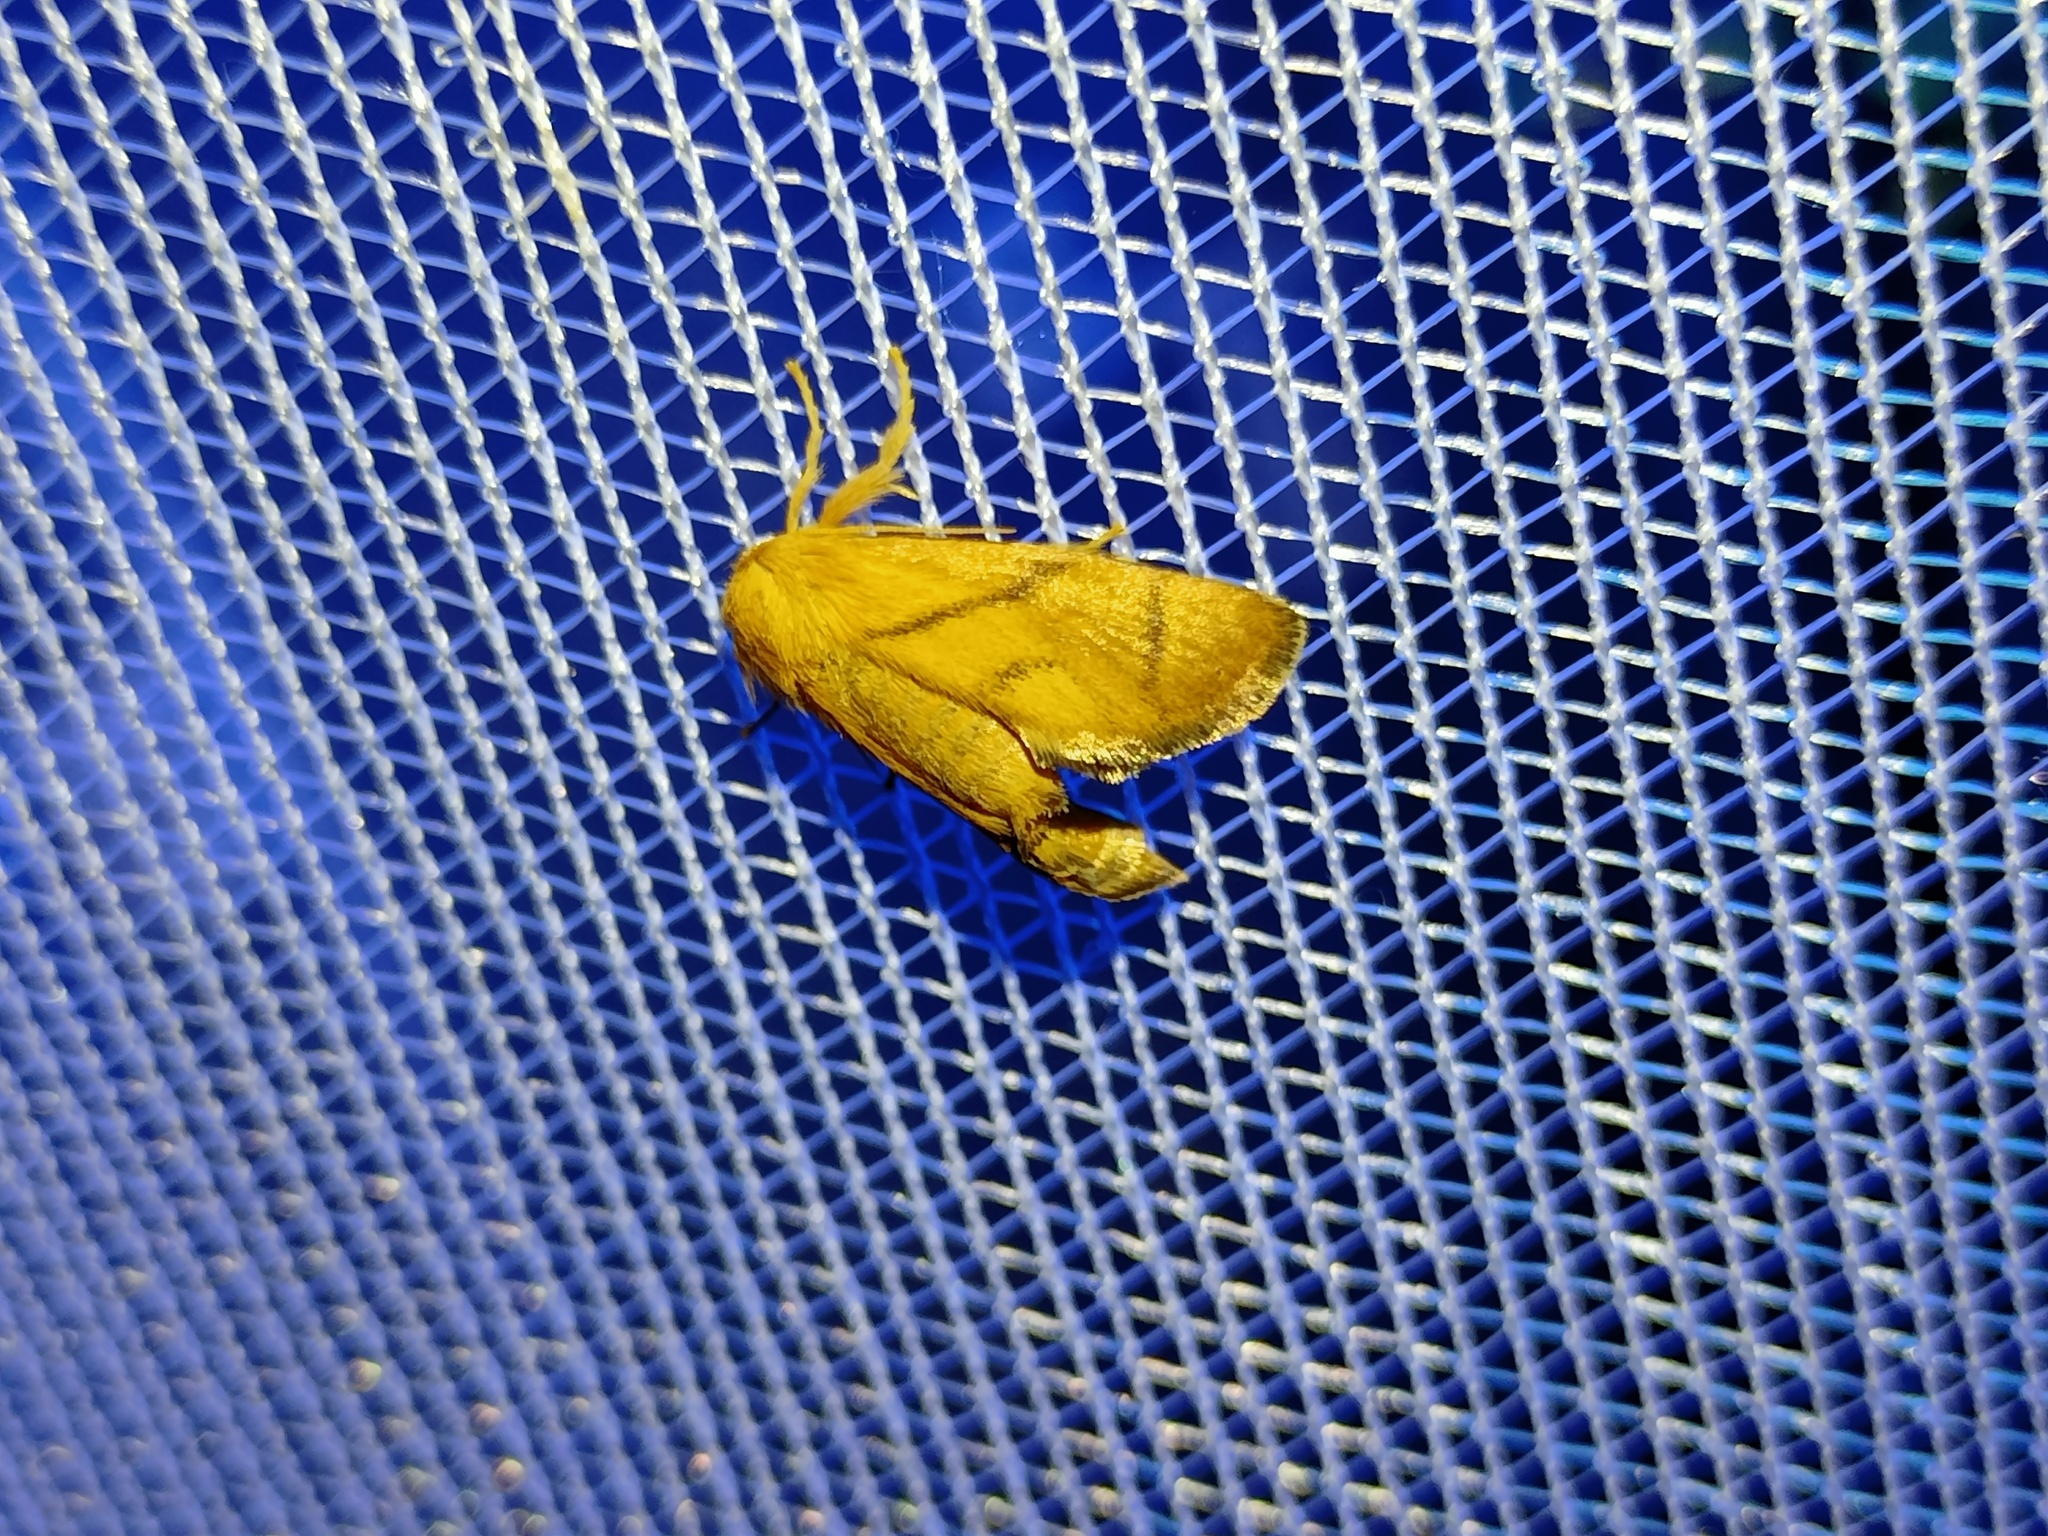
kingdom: Animalia
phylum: Arthropoda
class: Insecta
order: Lepidoptera
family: Limacodidae
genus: Apoda
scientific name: Apoda limacodes
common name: Festoon
